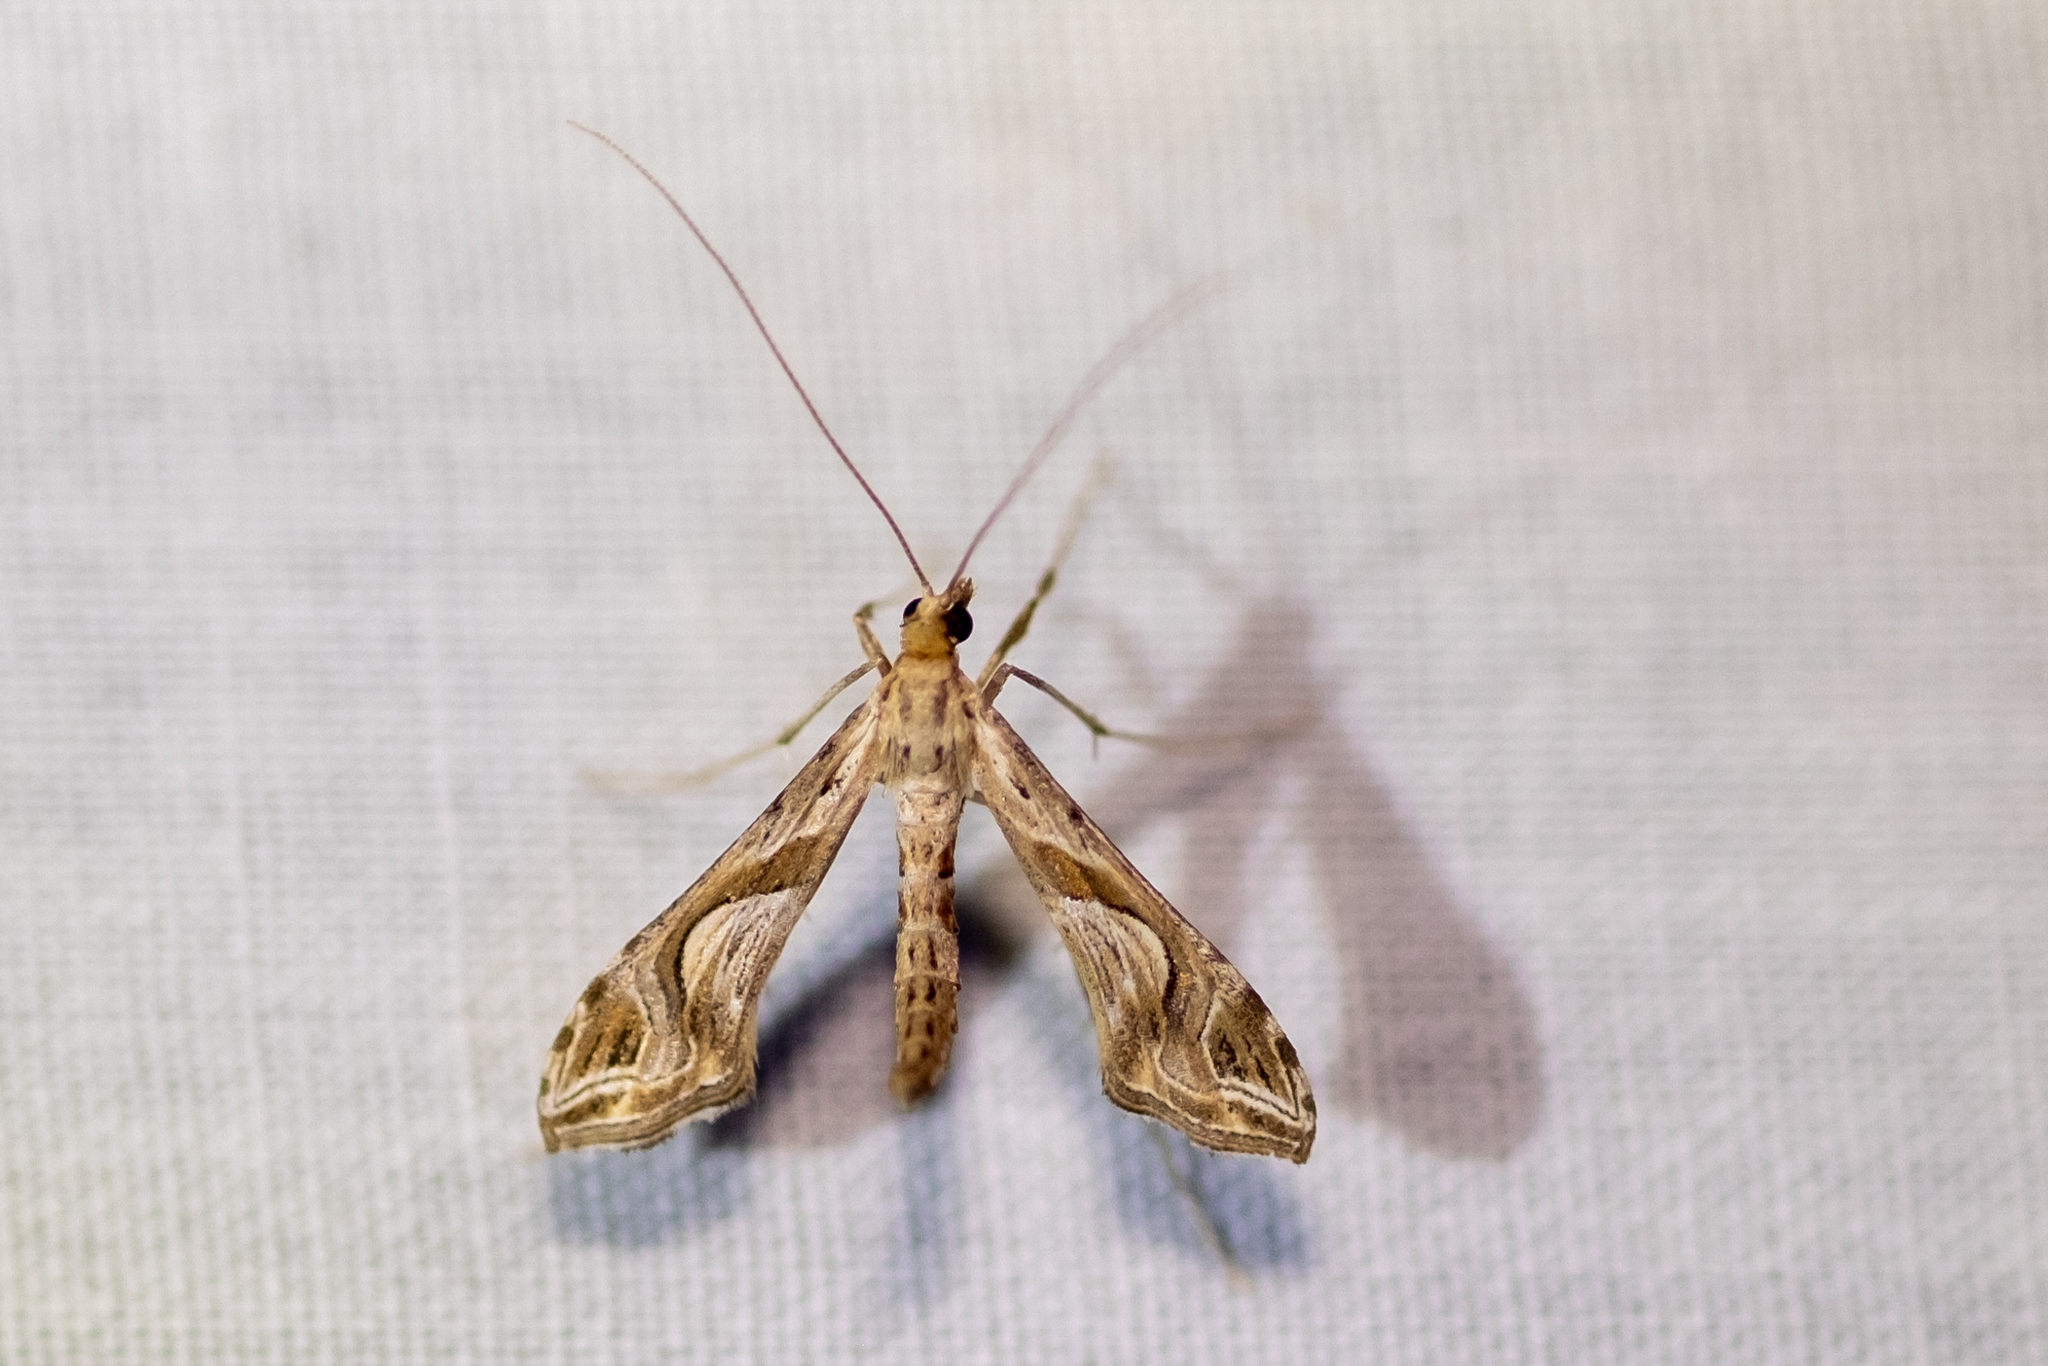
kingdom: Animalia
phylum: Arthropoda
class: Insecta
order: Lepidoptera
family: Crambidae
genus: Lineodes
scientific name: Lineodes integra
